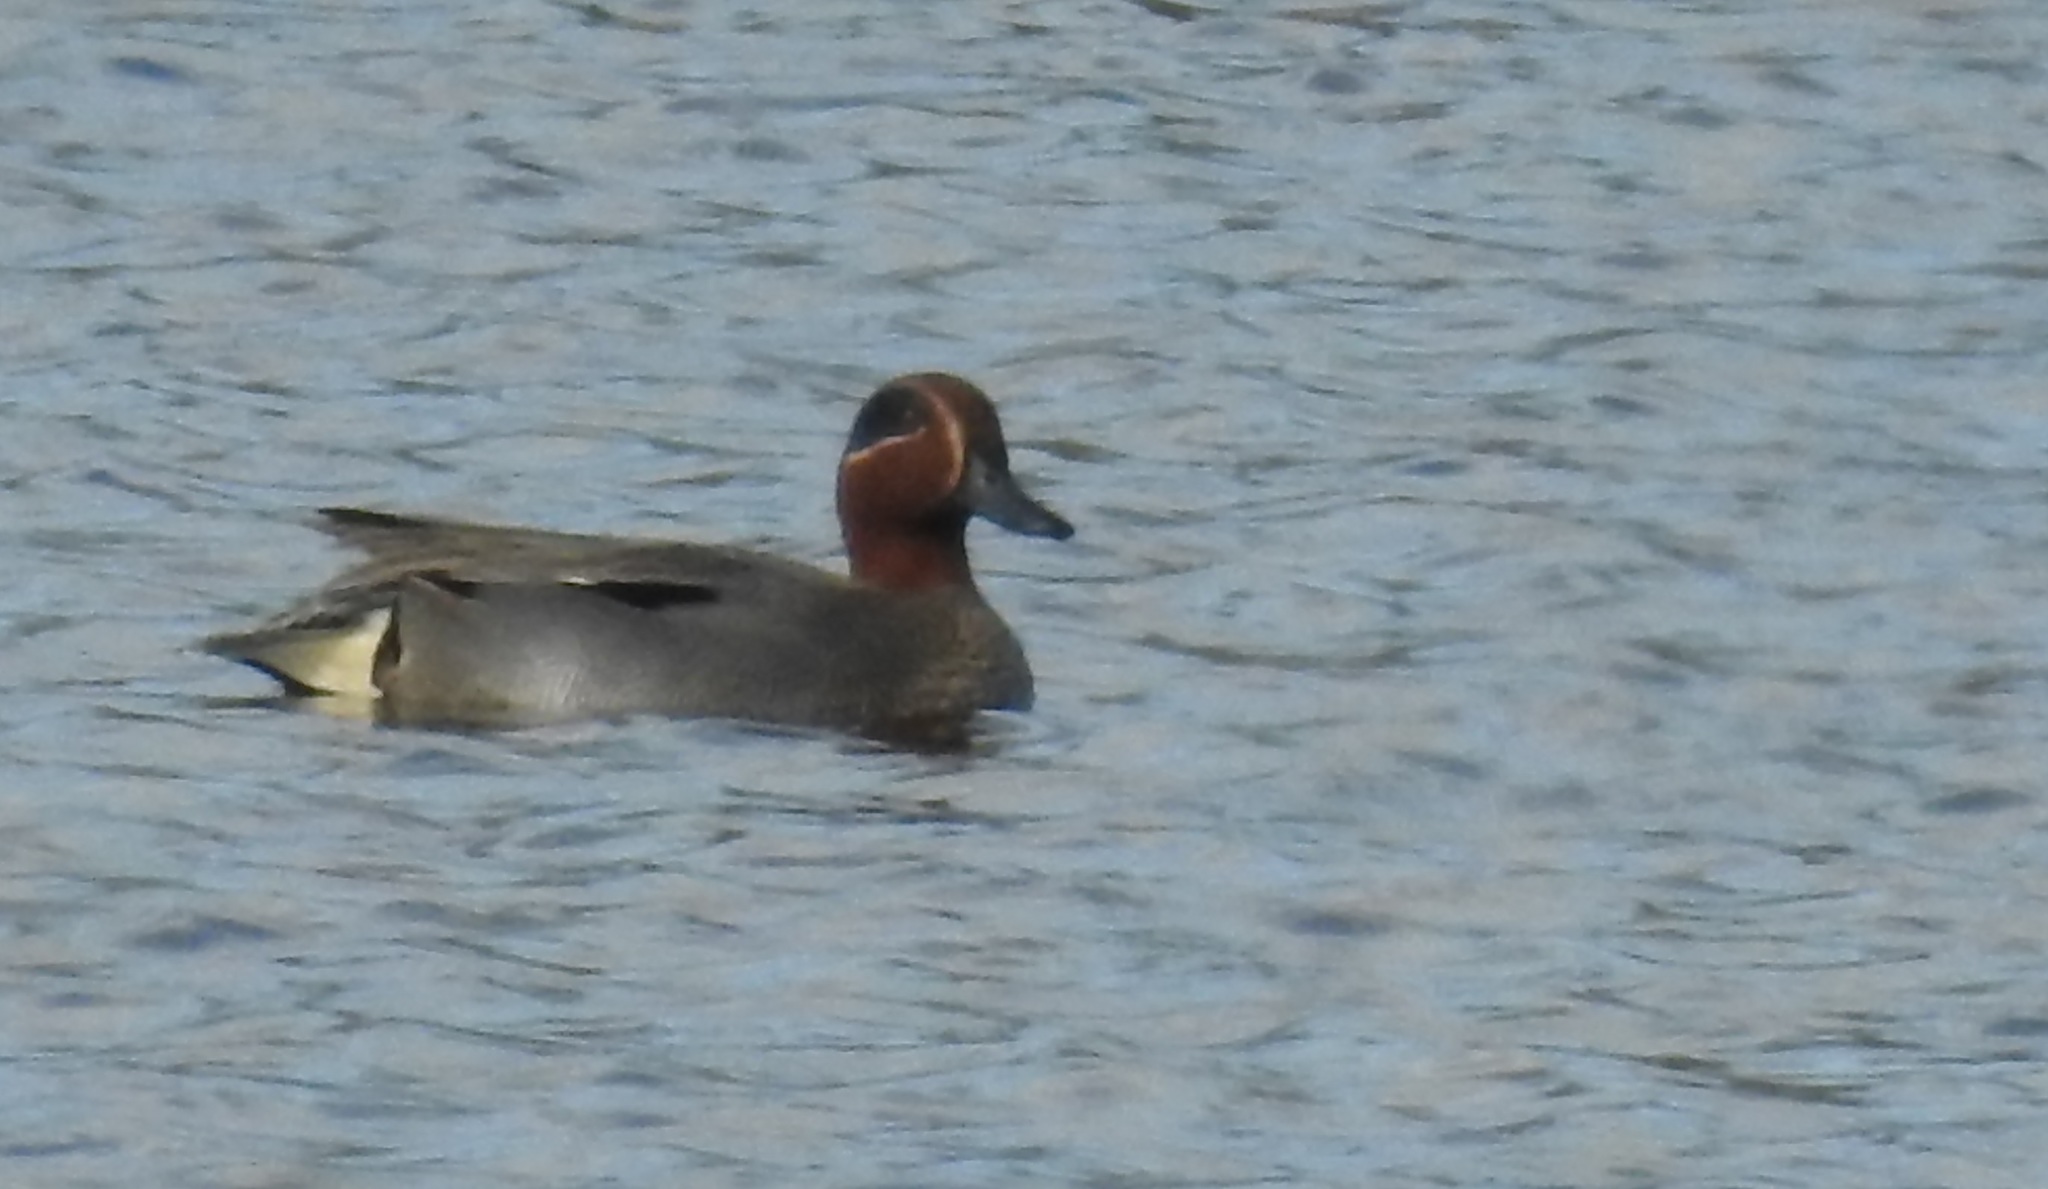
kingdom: Animalia
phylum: Chordata
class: Aves
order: Anseriformes
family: Anatidae
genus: Anas
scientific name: Anas crecca
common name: Eurasian teal
